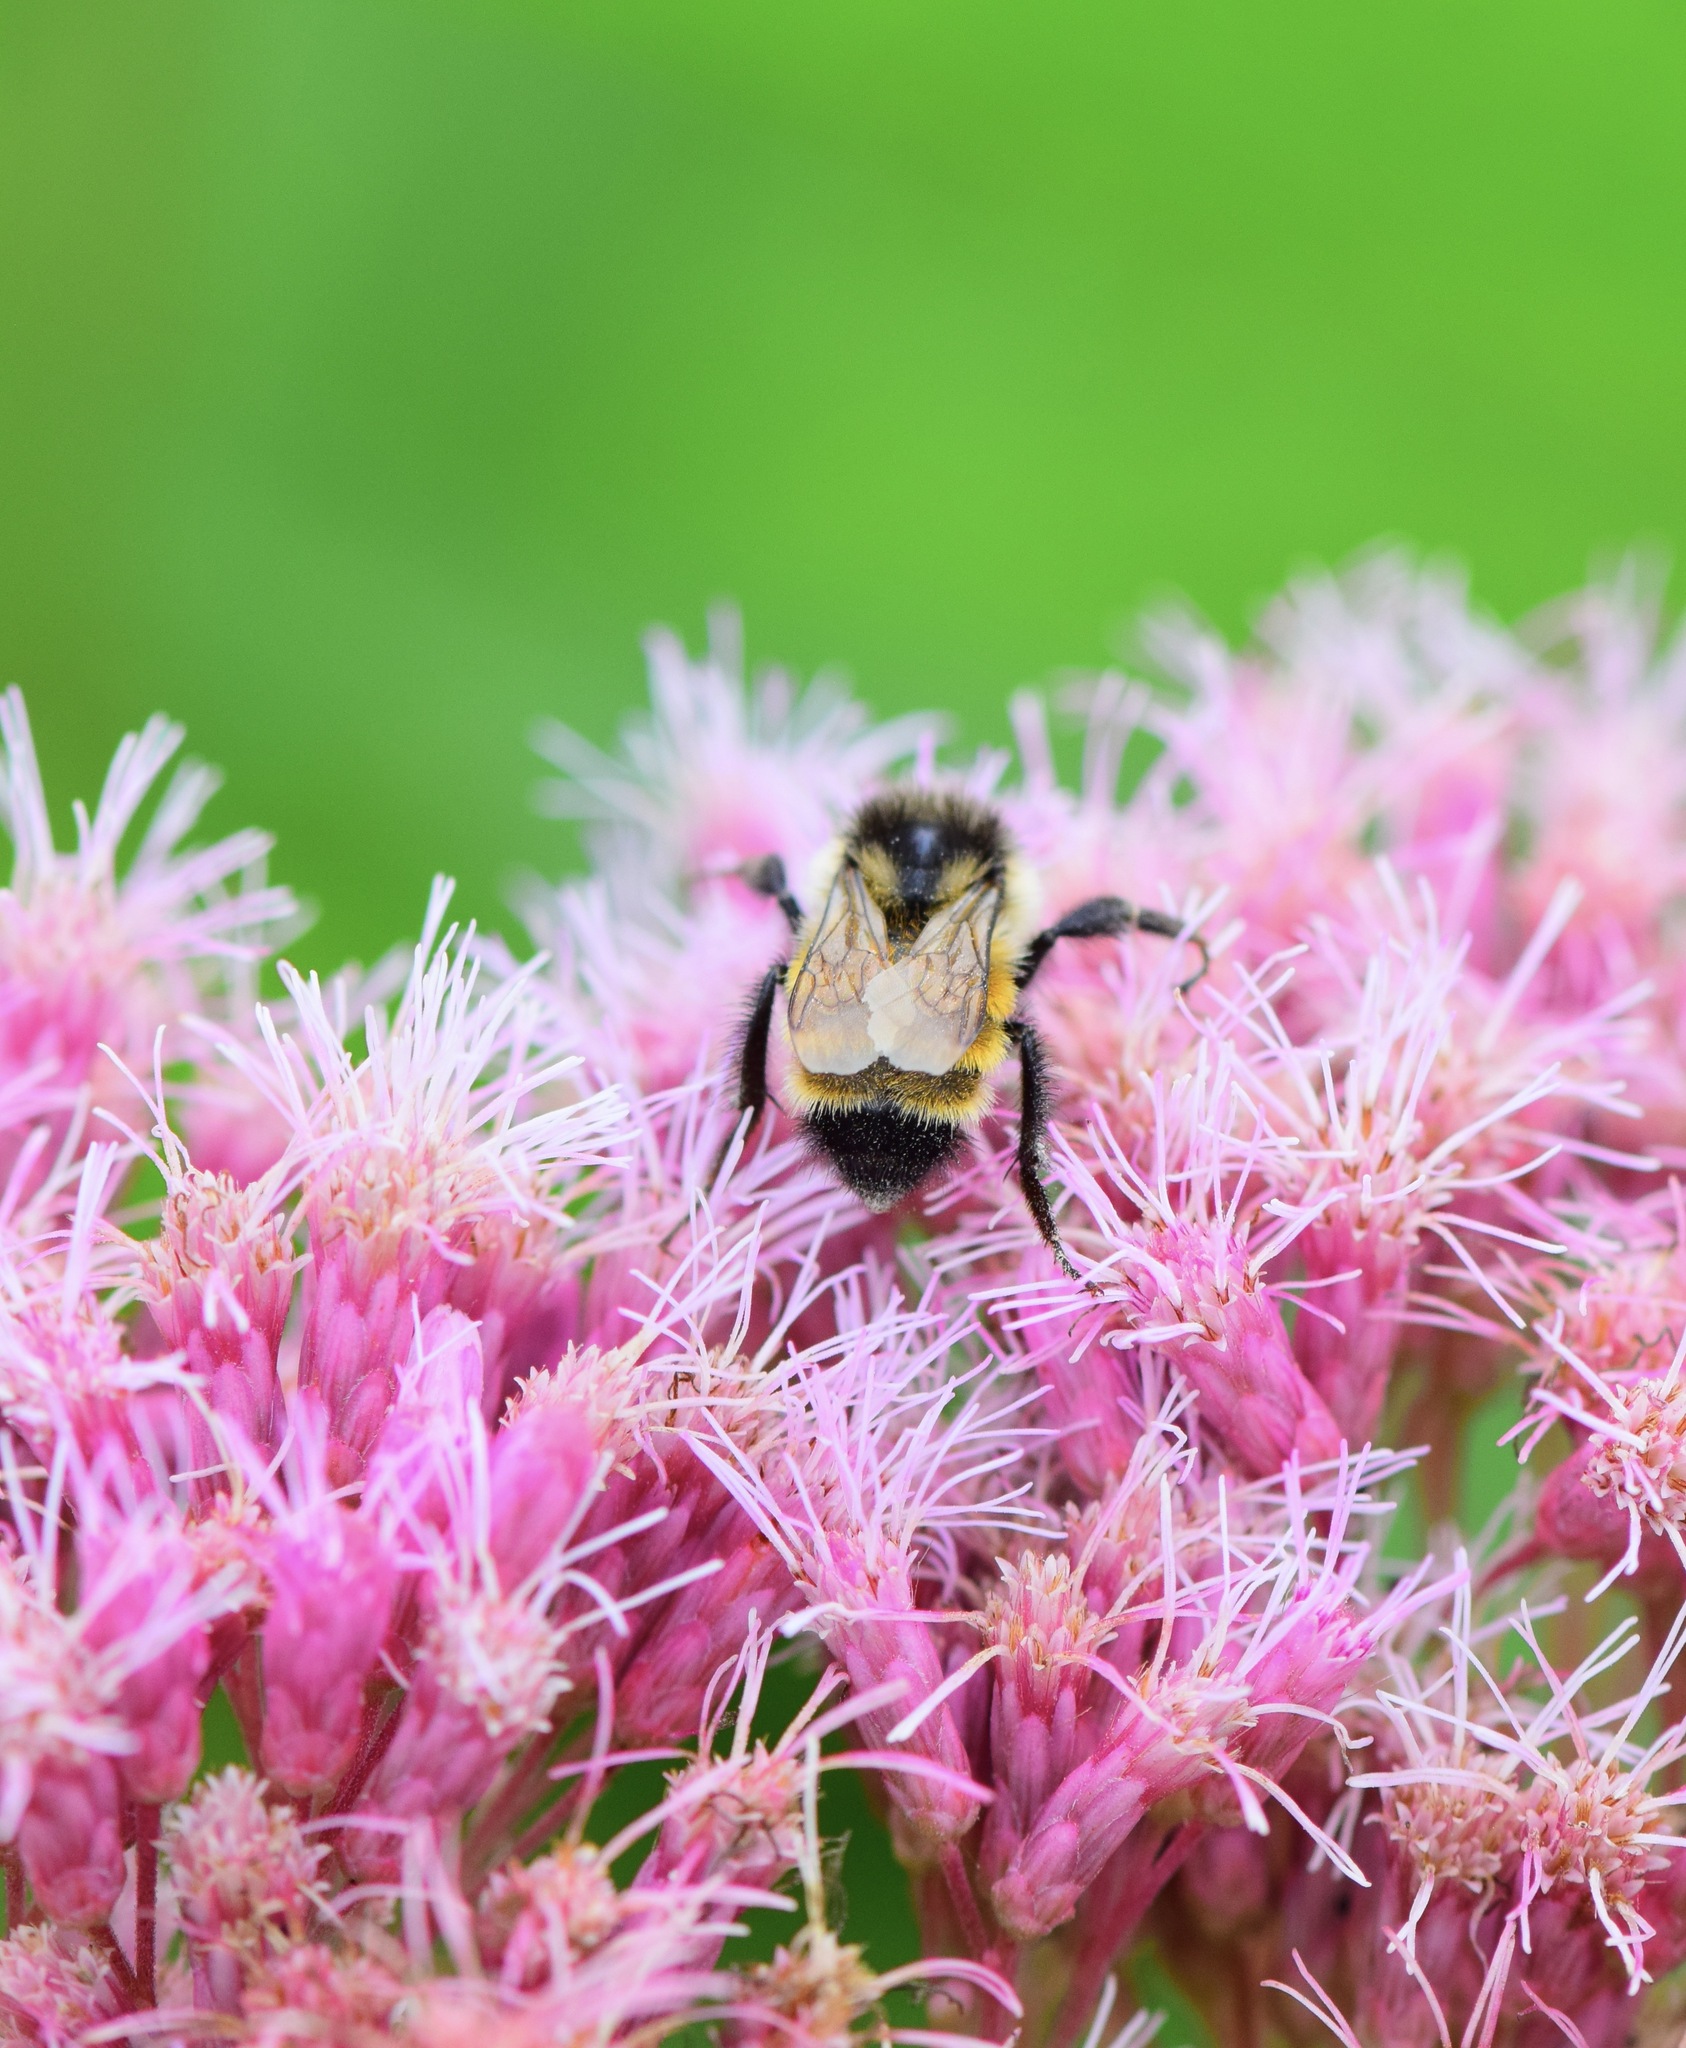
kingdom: Animalia
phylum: Arthropoda
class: Insecta
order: Hymenoptera
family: Apidae
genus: Bombus
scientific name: Bombus ternarius
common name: Tri-colored bumble bee
